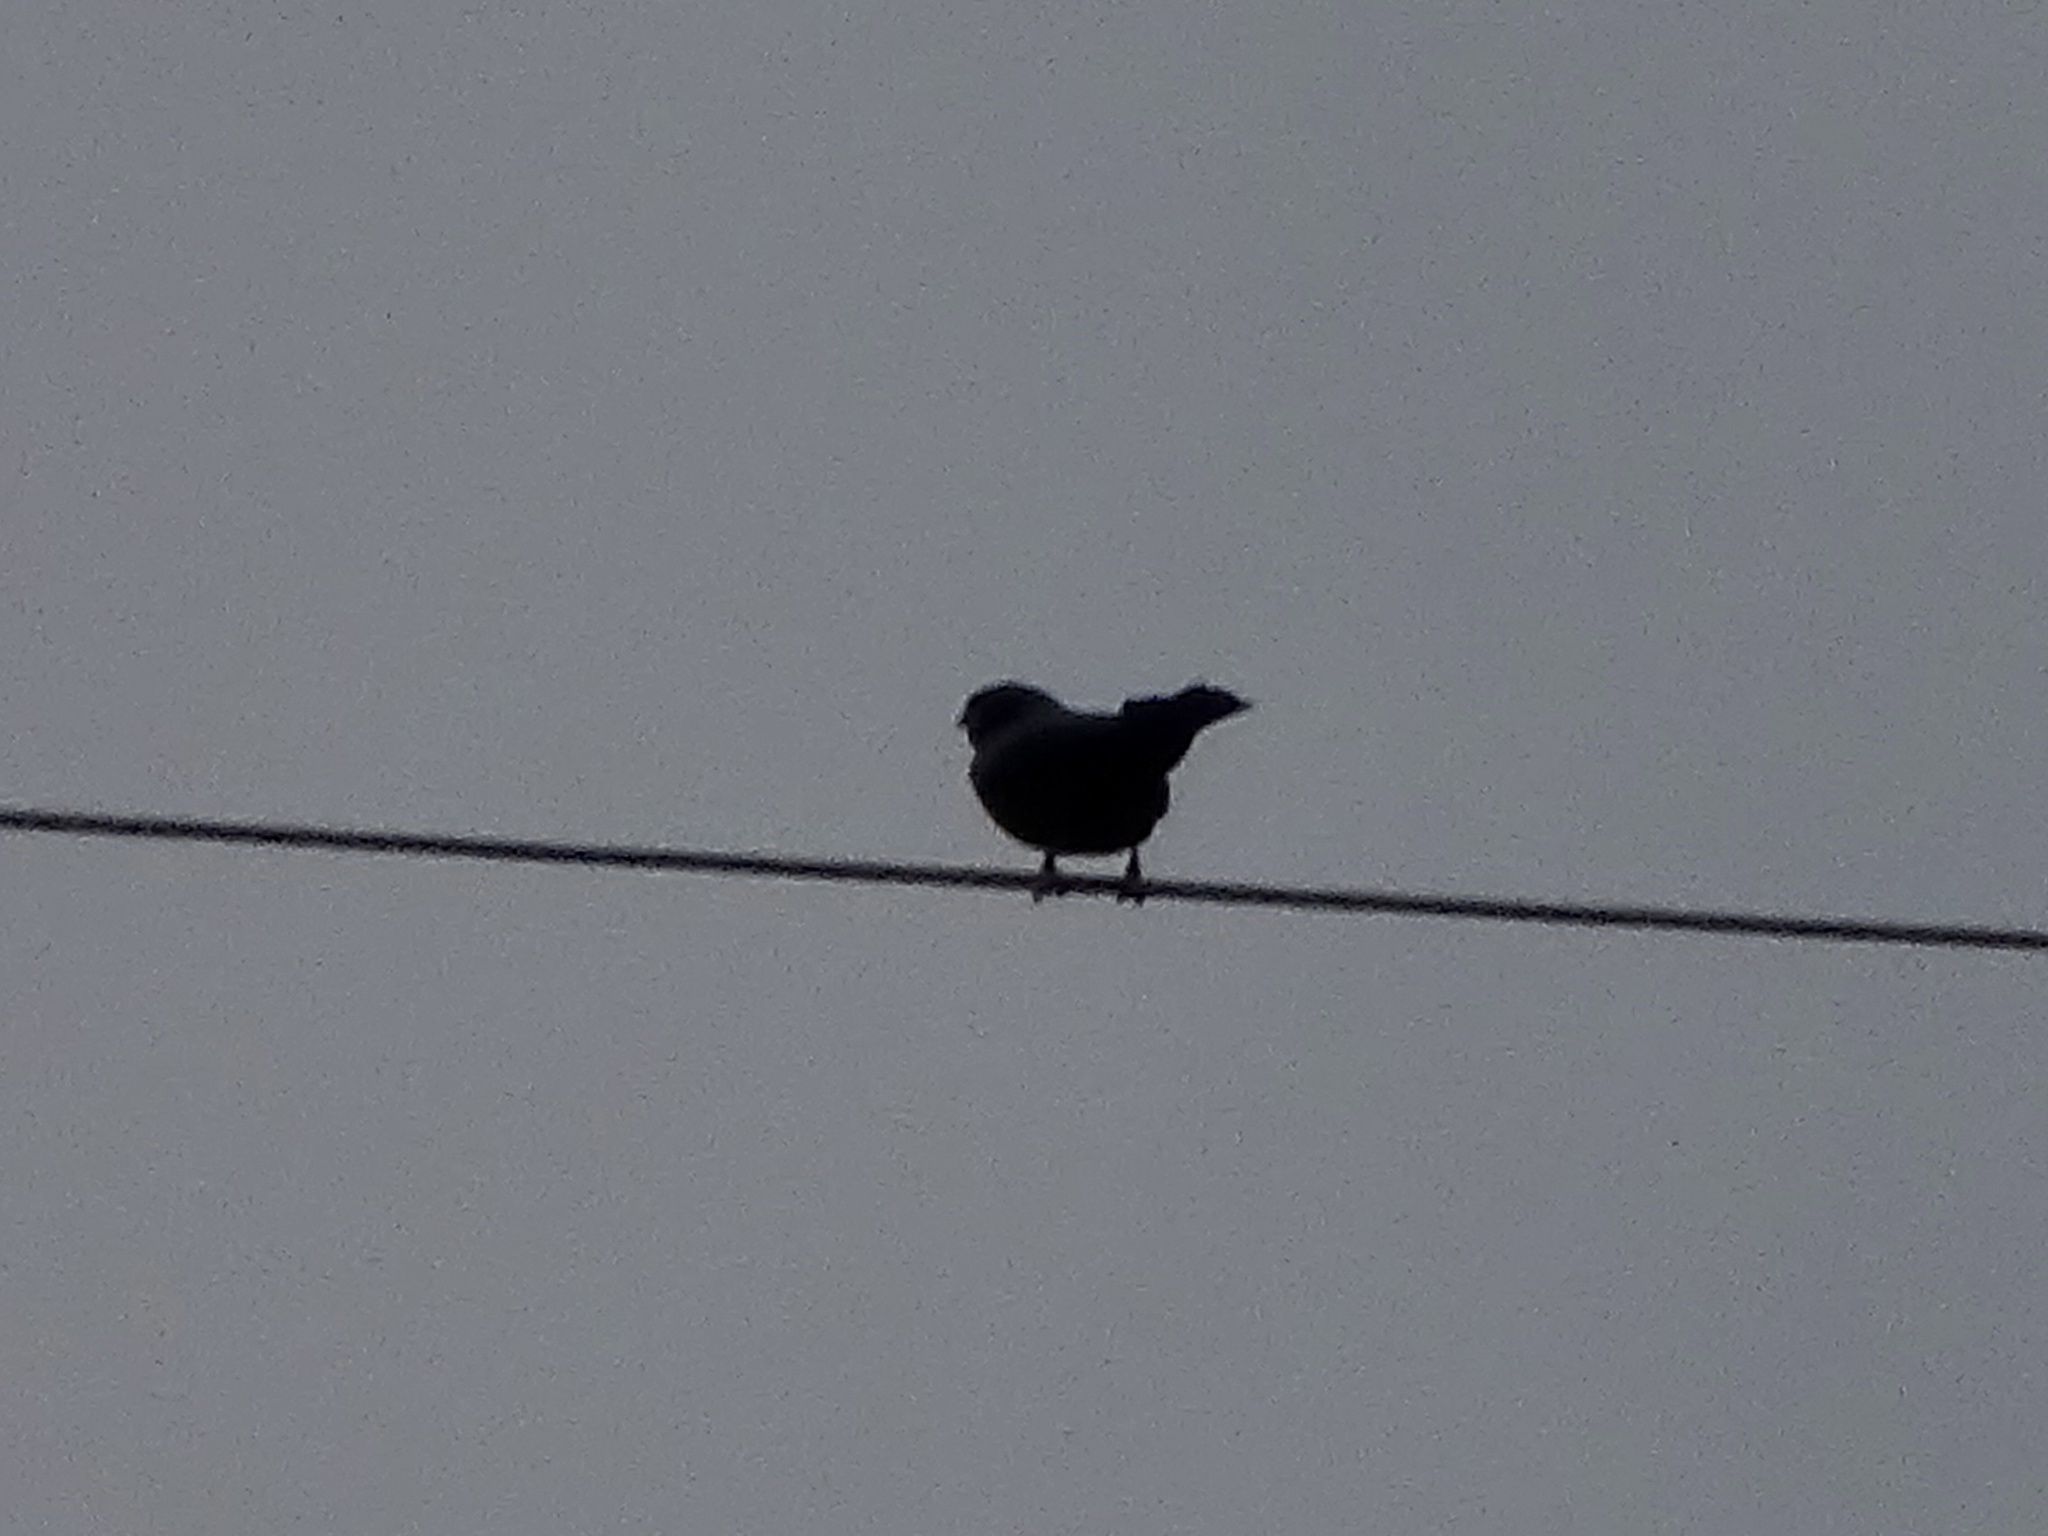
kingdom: Animalia
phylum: Chordata
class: Aves
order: Passeriformes
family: Laniidae
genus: Lanius
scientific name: Lanius ludovicianus
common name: Loggerhead shrike
